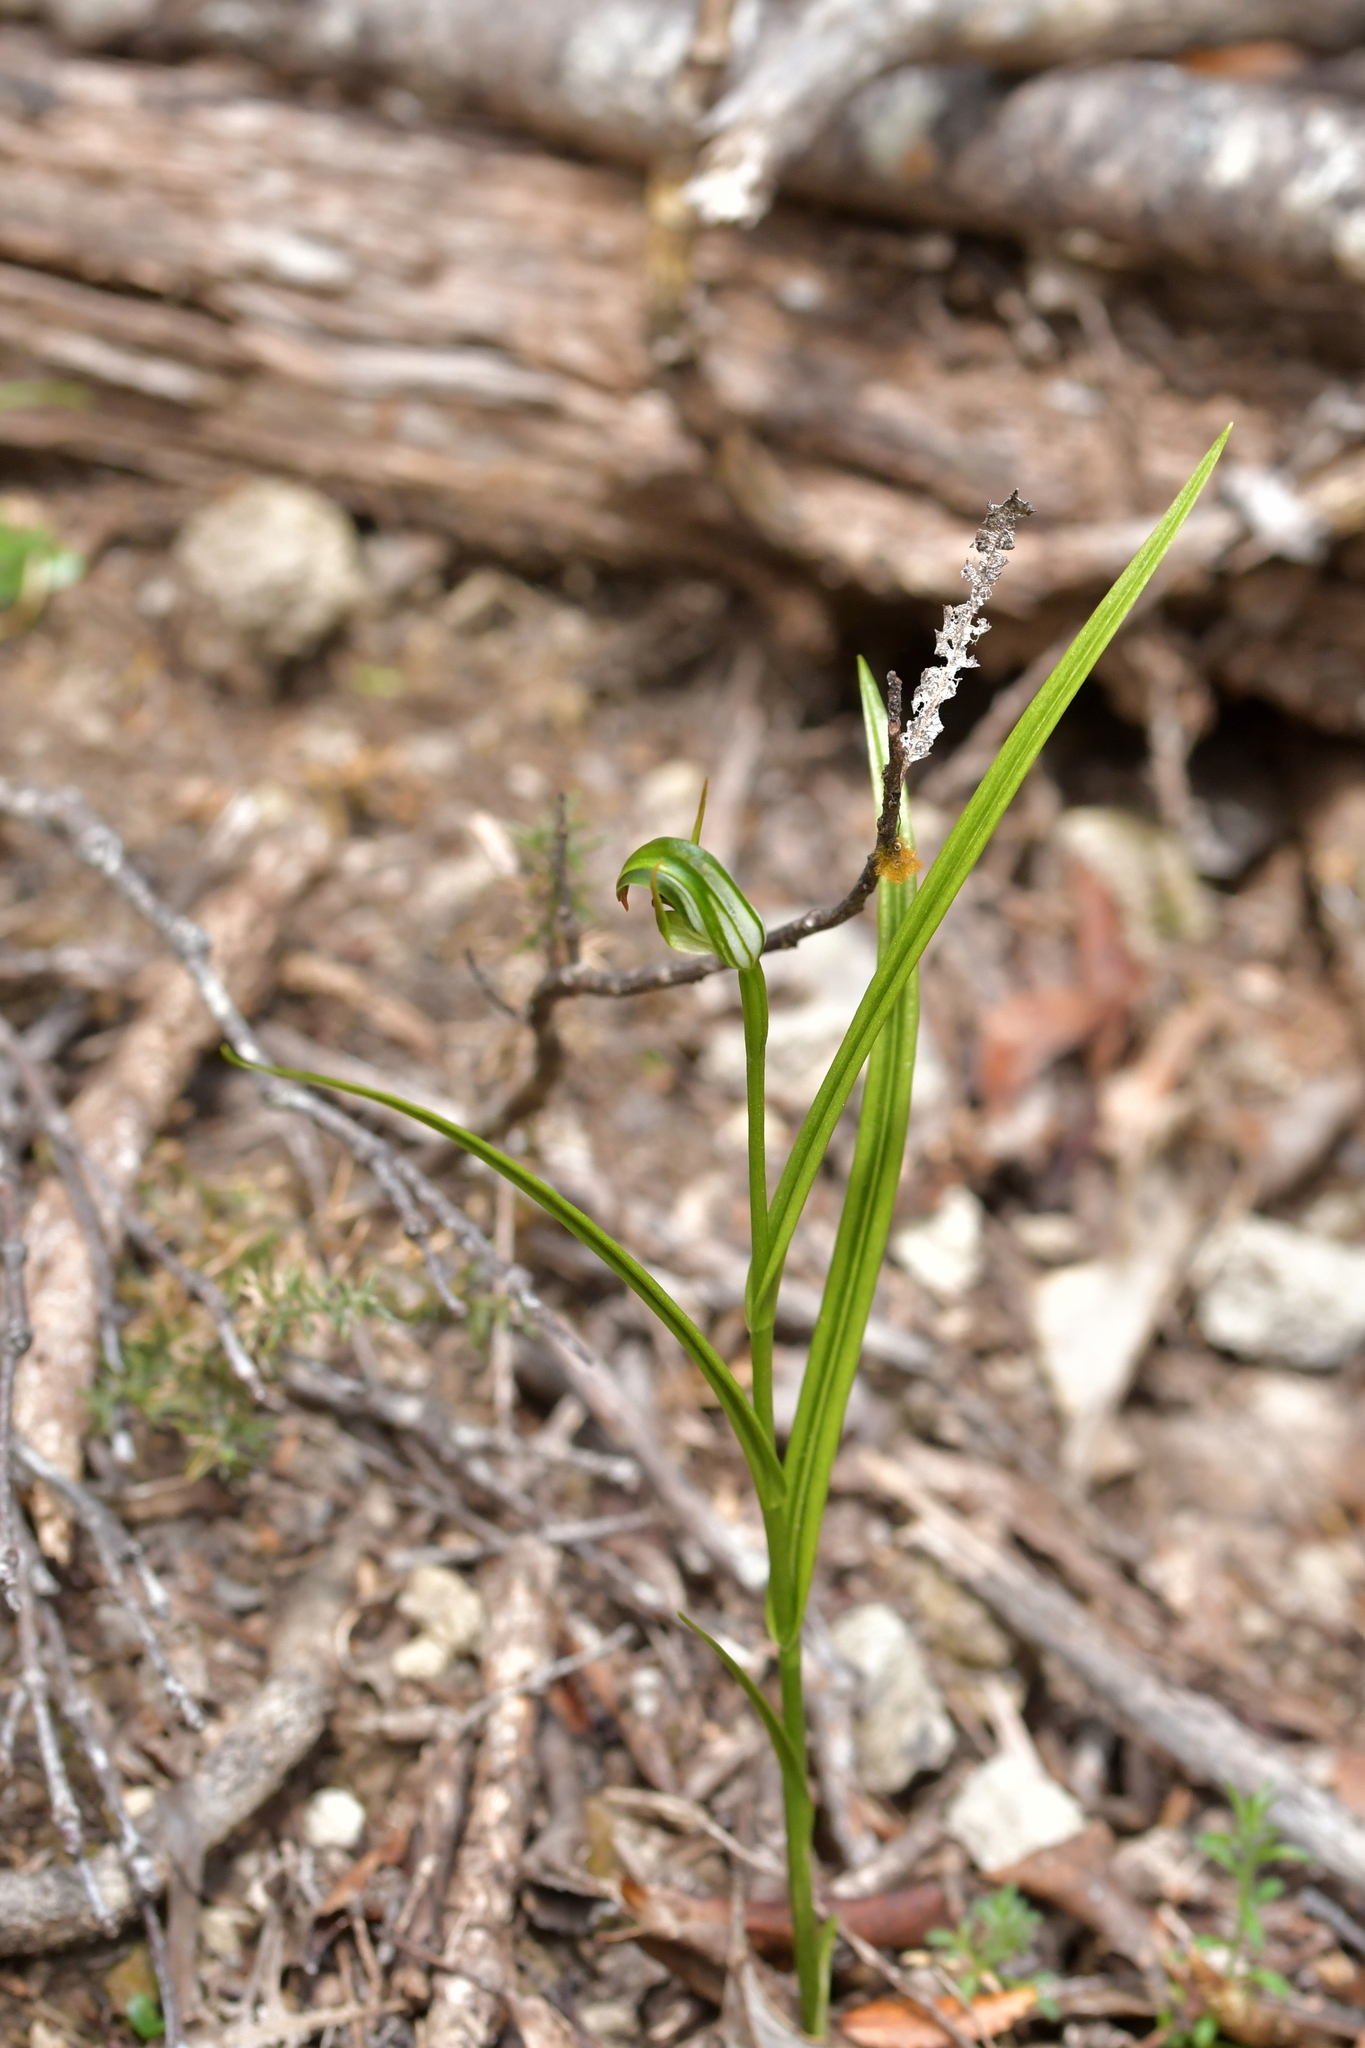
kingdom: Plantae
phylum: Tracheophyta
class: Liliopsida
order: Asparagales
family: Orchidaceae
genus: Pterostylis
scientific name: Pterostylis graminea
